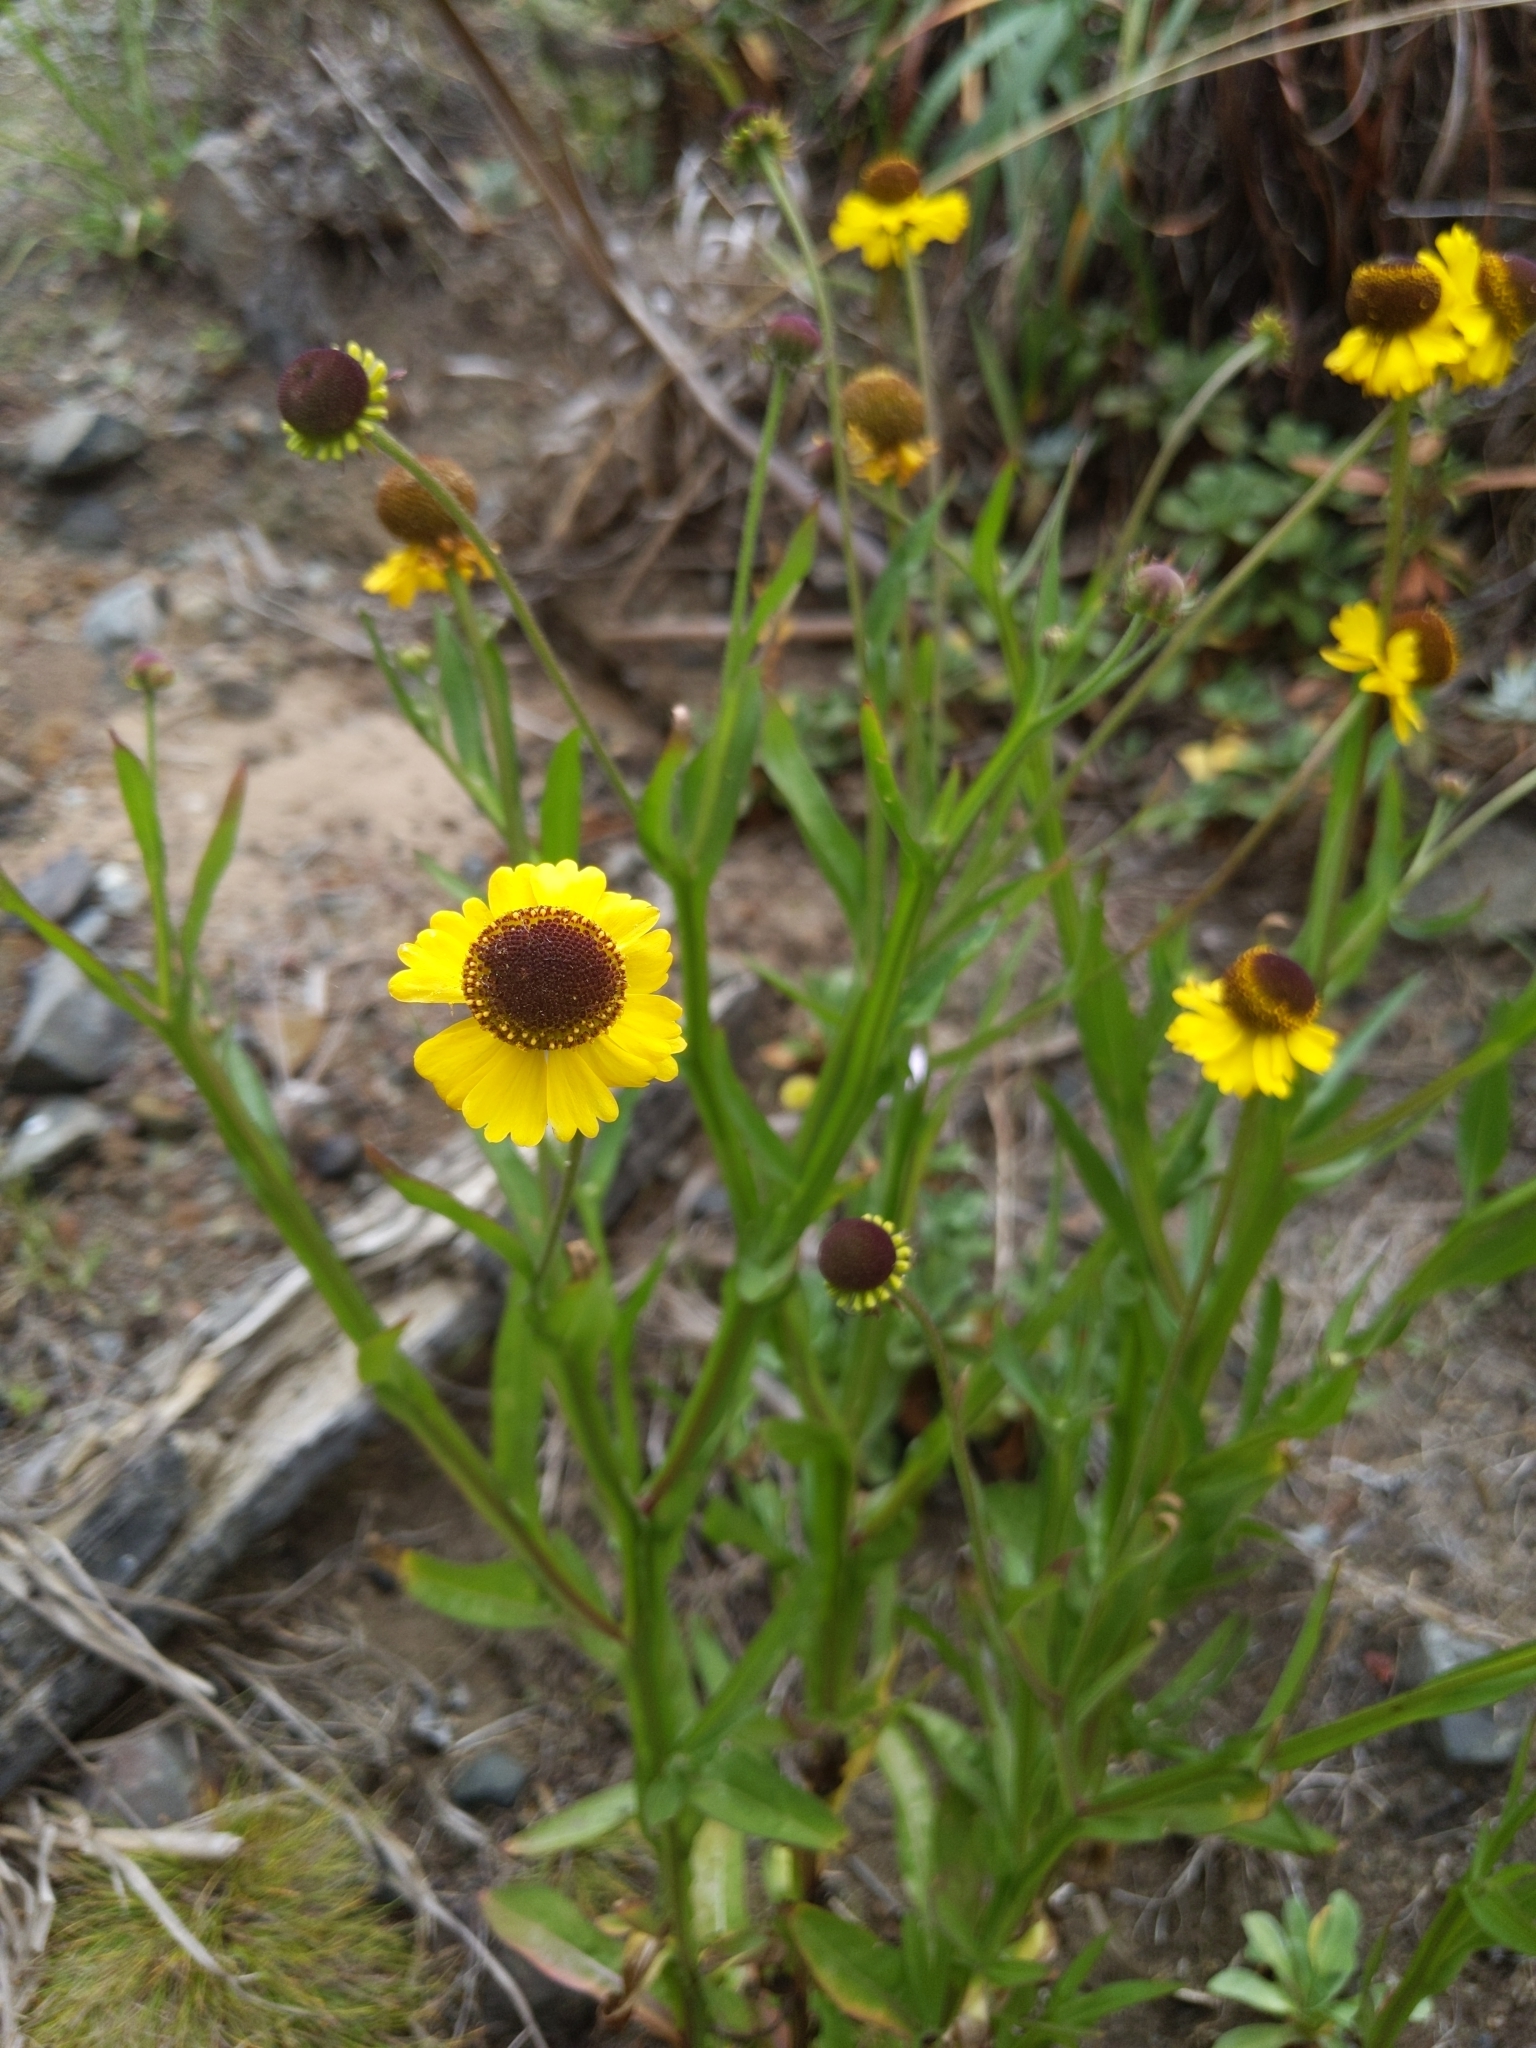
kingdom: Plantae
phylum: Tracheophyta
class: Magnoliopsida
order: Asterales
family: Asteraceae
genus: Helenium
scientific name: Helenium bigelovii
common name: Bigelow's sneezeweed
